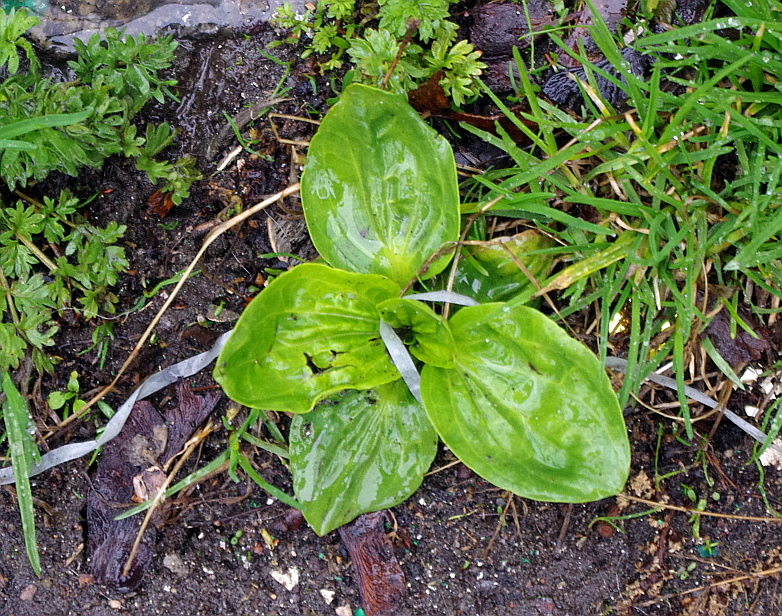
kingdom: Plantae
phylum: Tracheophyta
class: Magnoliopsida
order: Lamiales
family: Plantaginaceae
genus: Plantago
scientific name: Plantago major
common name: Common plantain
